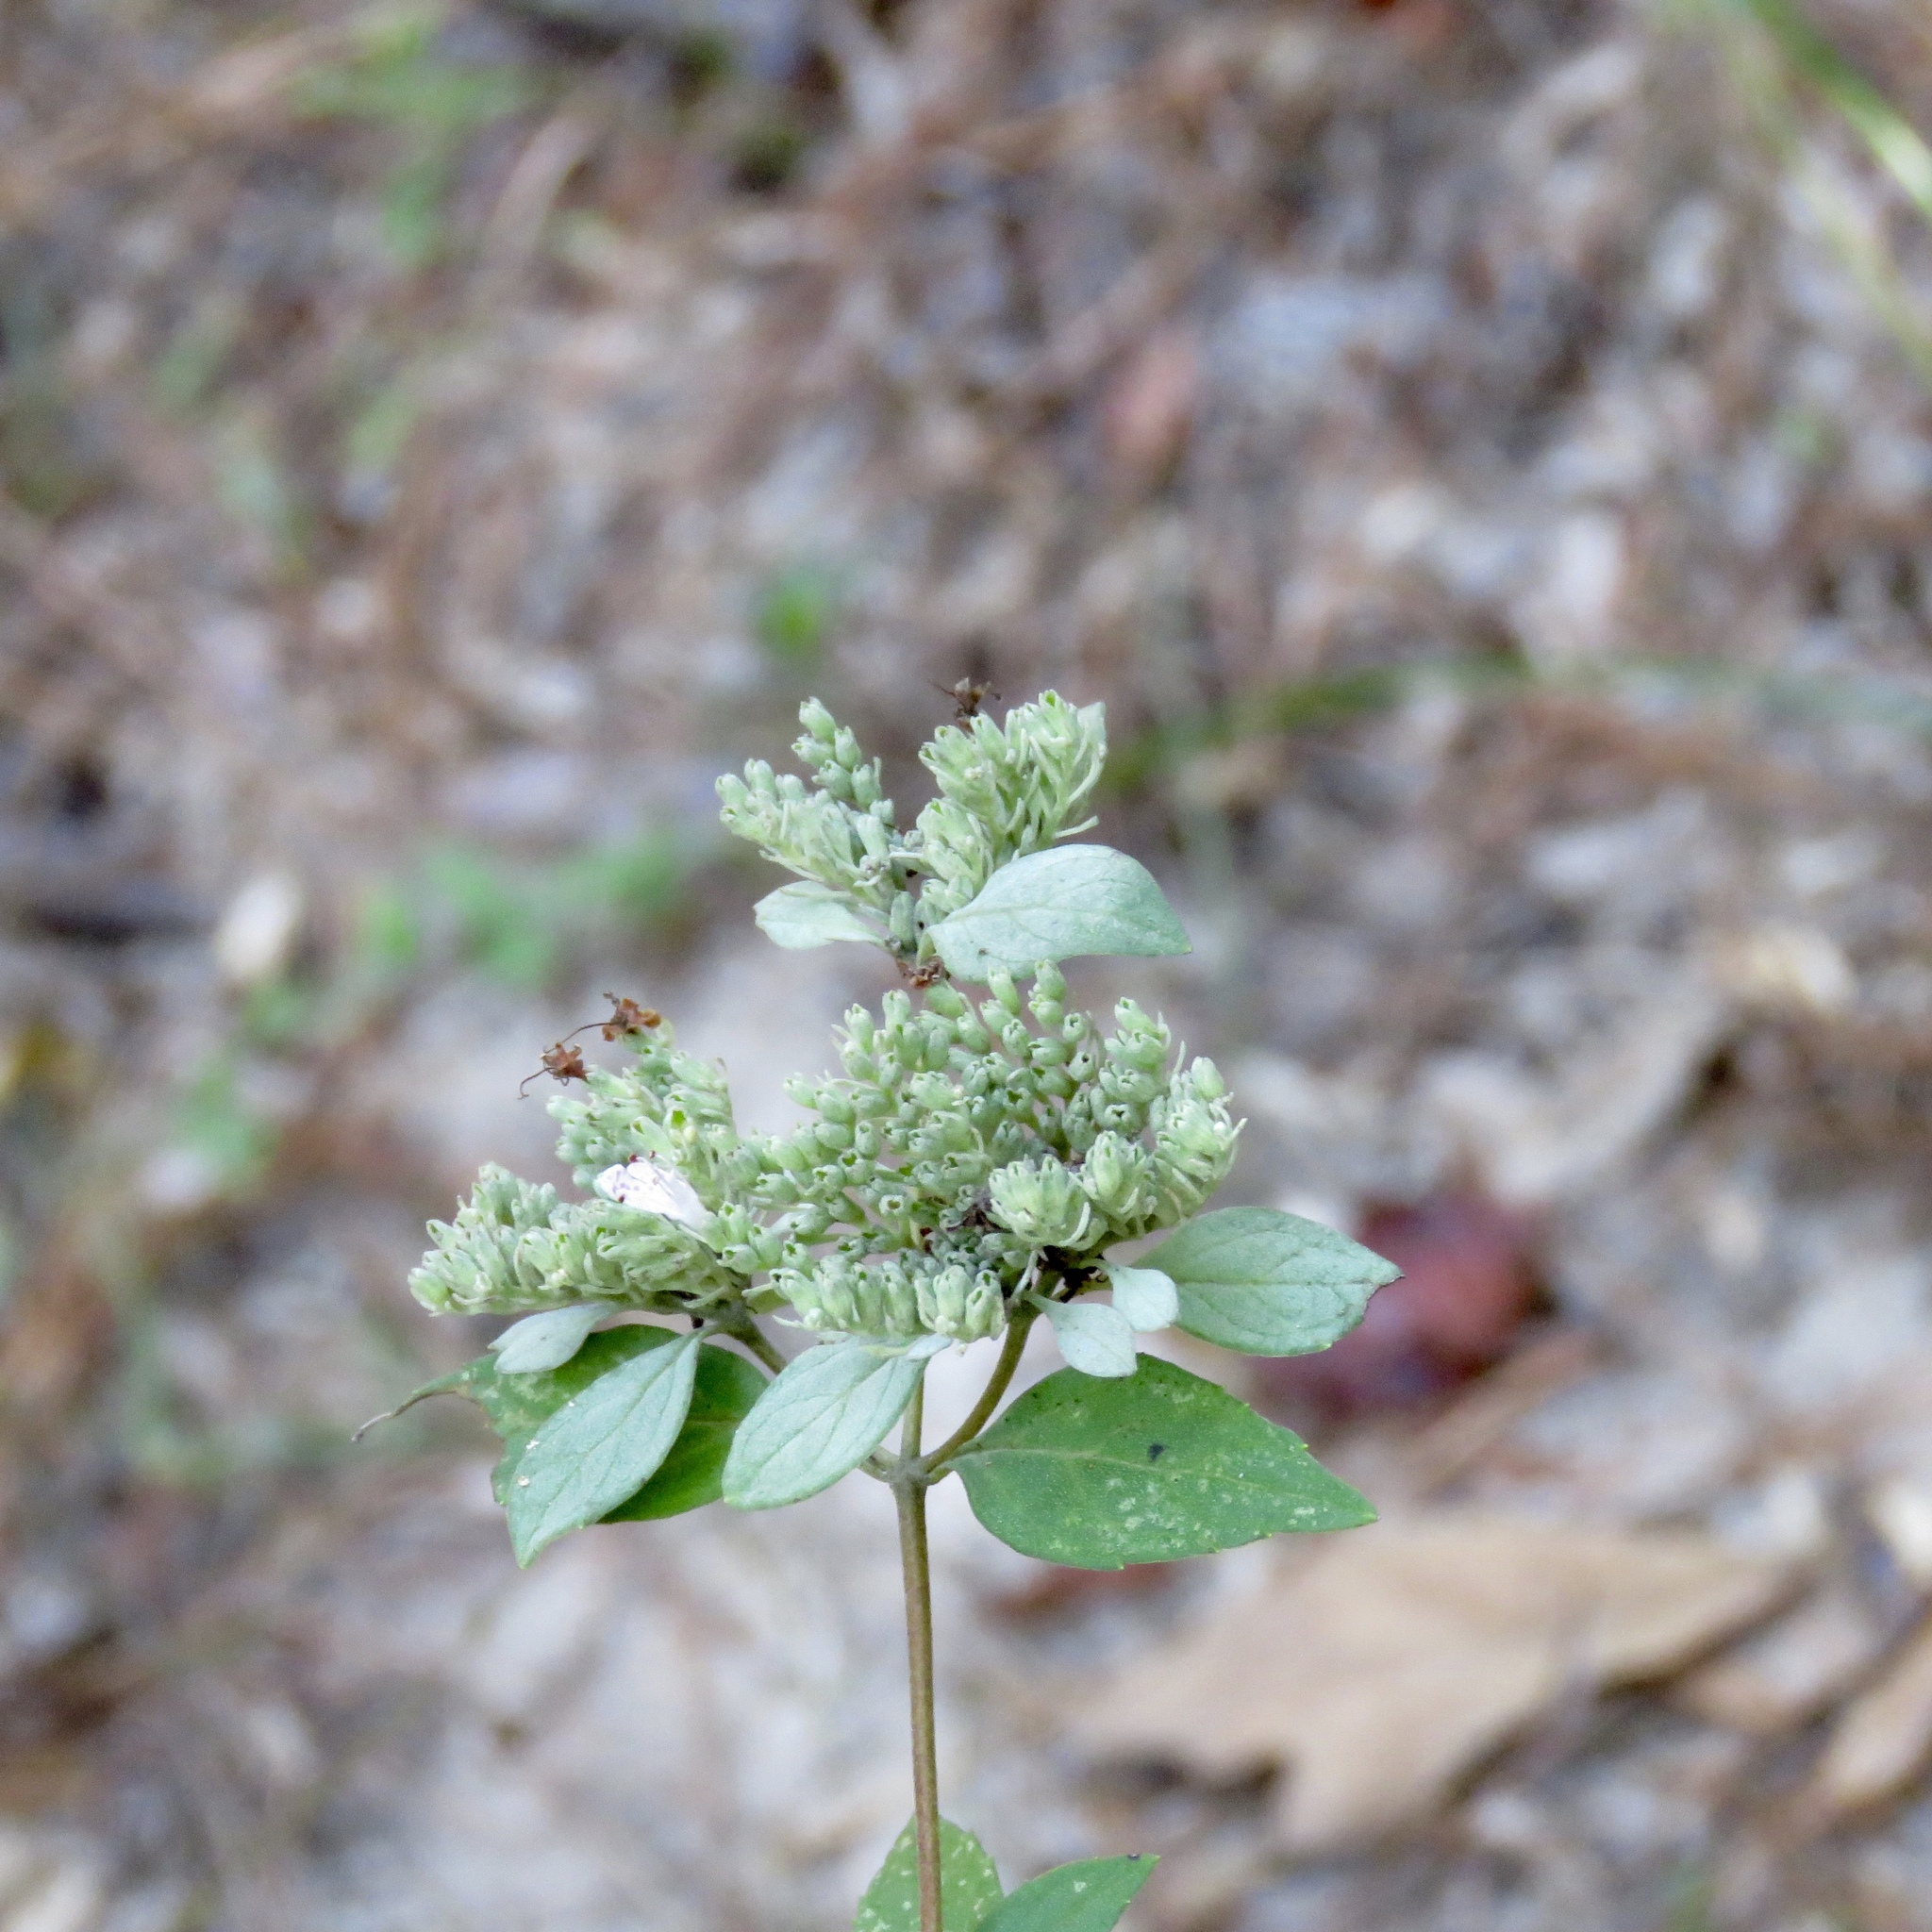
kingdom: Plantae
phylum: Tracheophyta
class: Magnoliopsida
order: Lamiales
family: Lamiaceae
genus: Pycnanthemum
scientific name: Pycnanthemum albescens
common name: White-leaf mountain-mint
